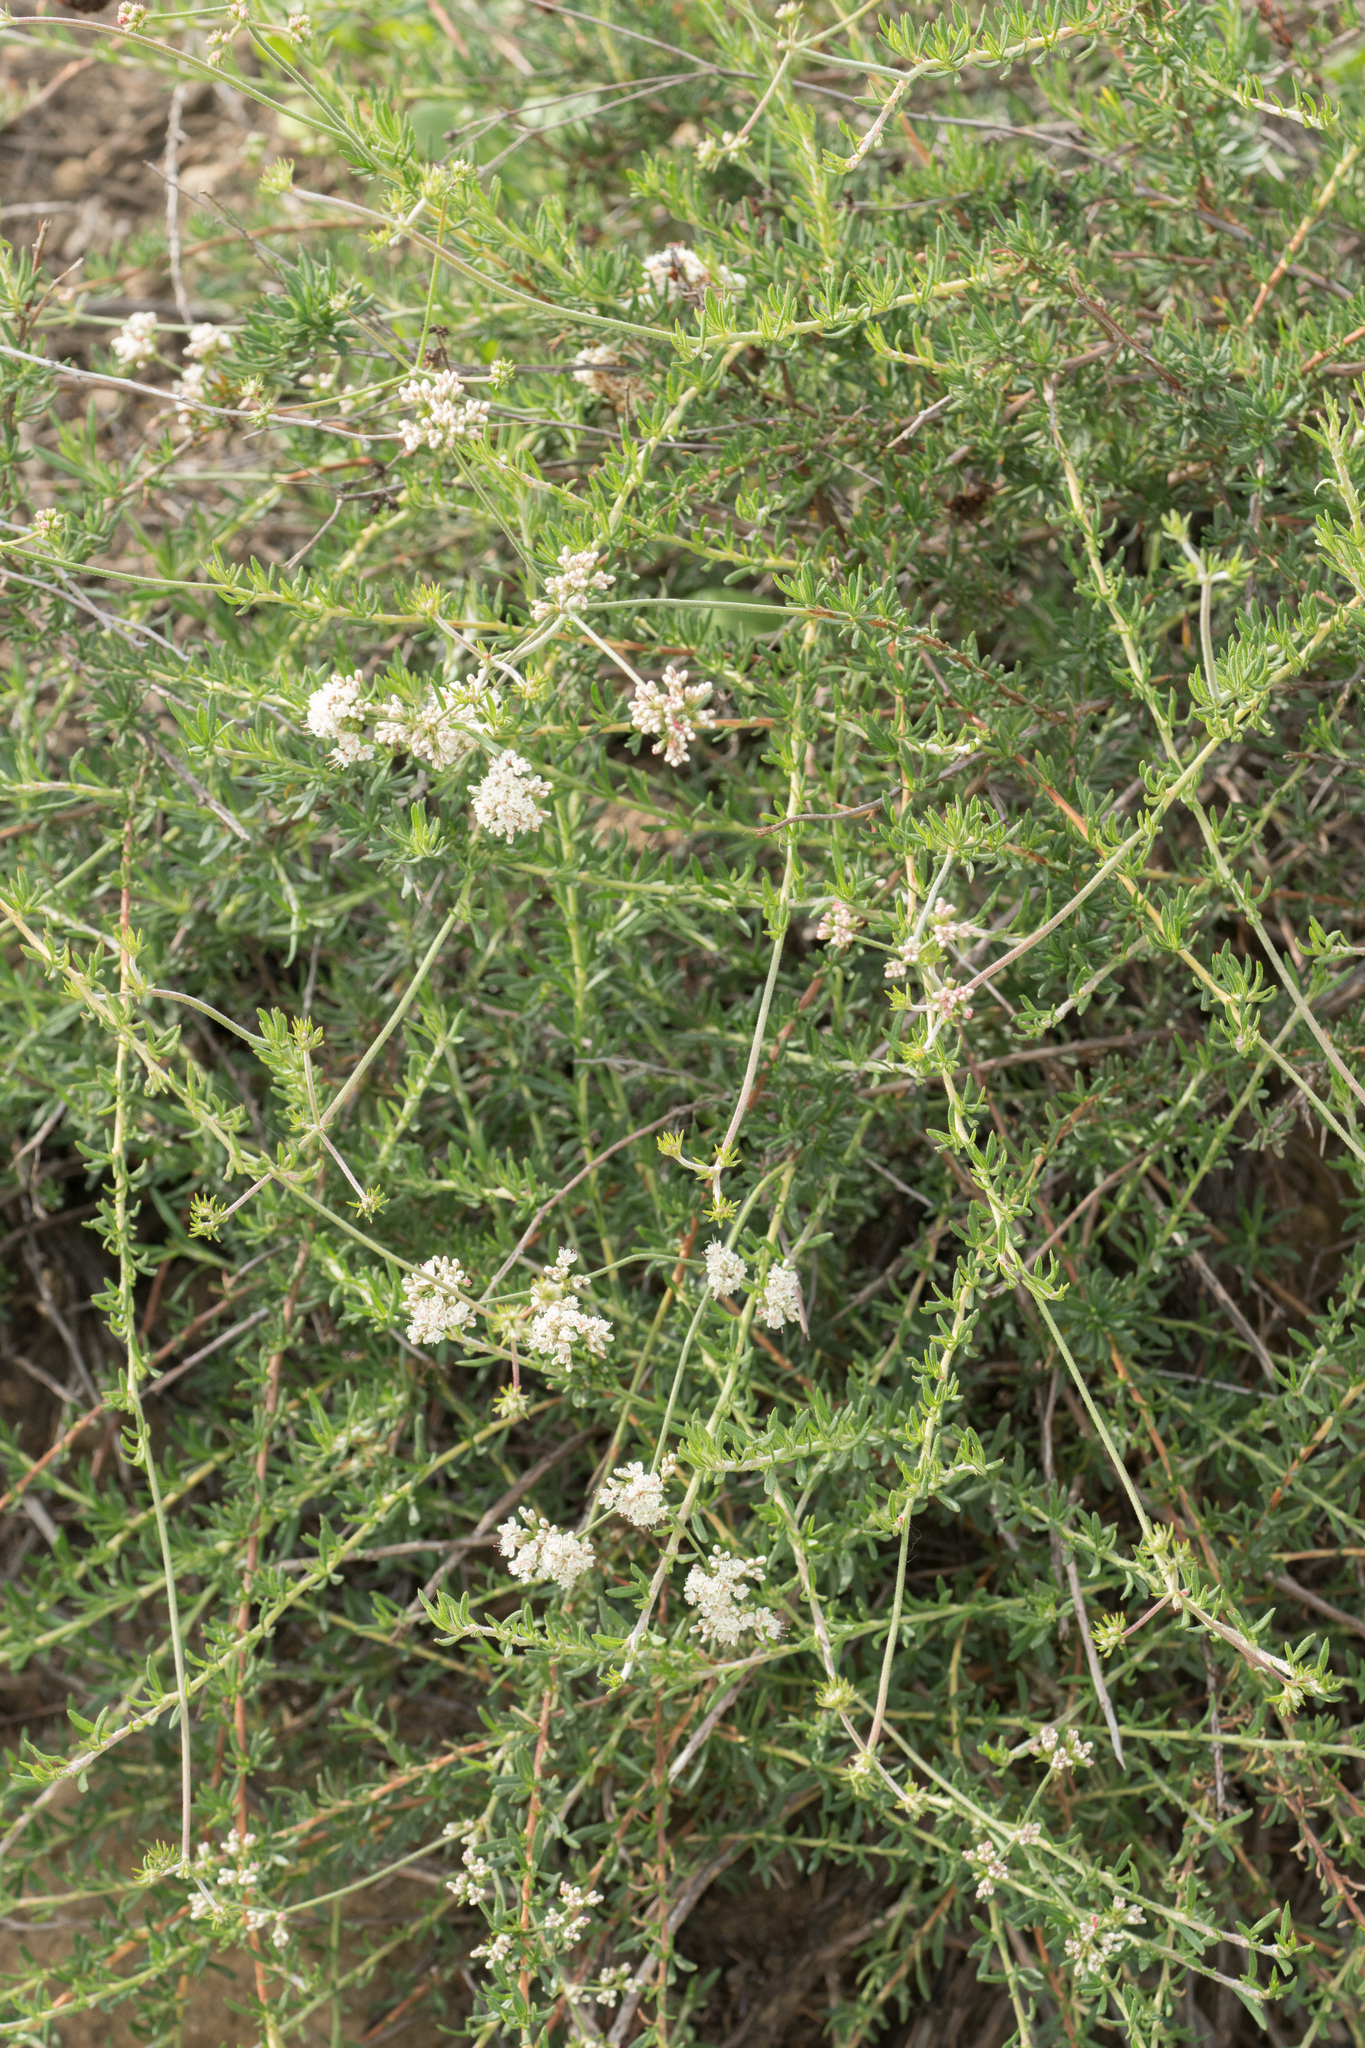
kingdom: Plantae
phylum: Tracheophyta
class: Magnoliopsida
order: Caryophyllales
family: Polygonaceae
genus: Eriogonum
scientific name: Eriogonum fasciculatum
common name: California wild buckwheat
